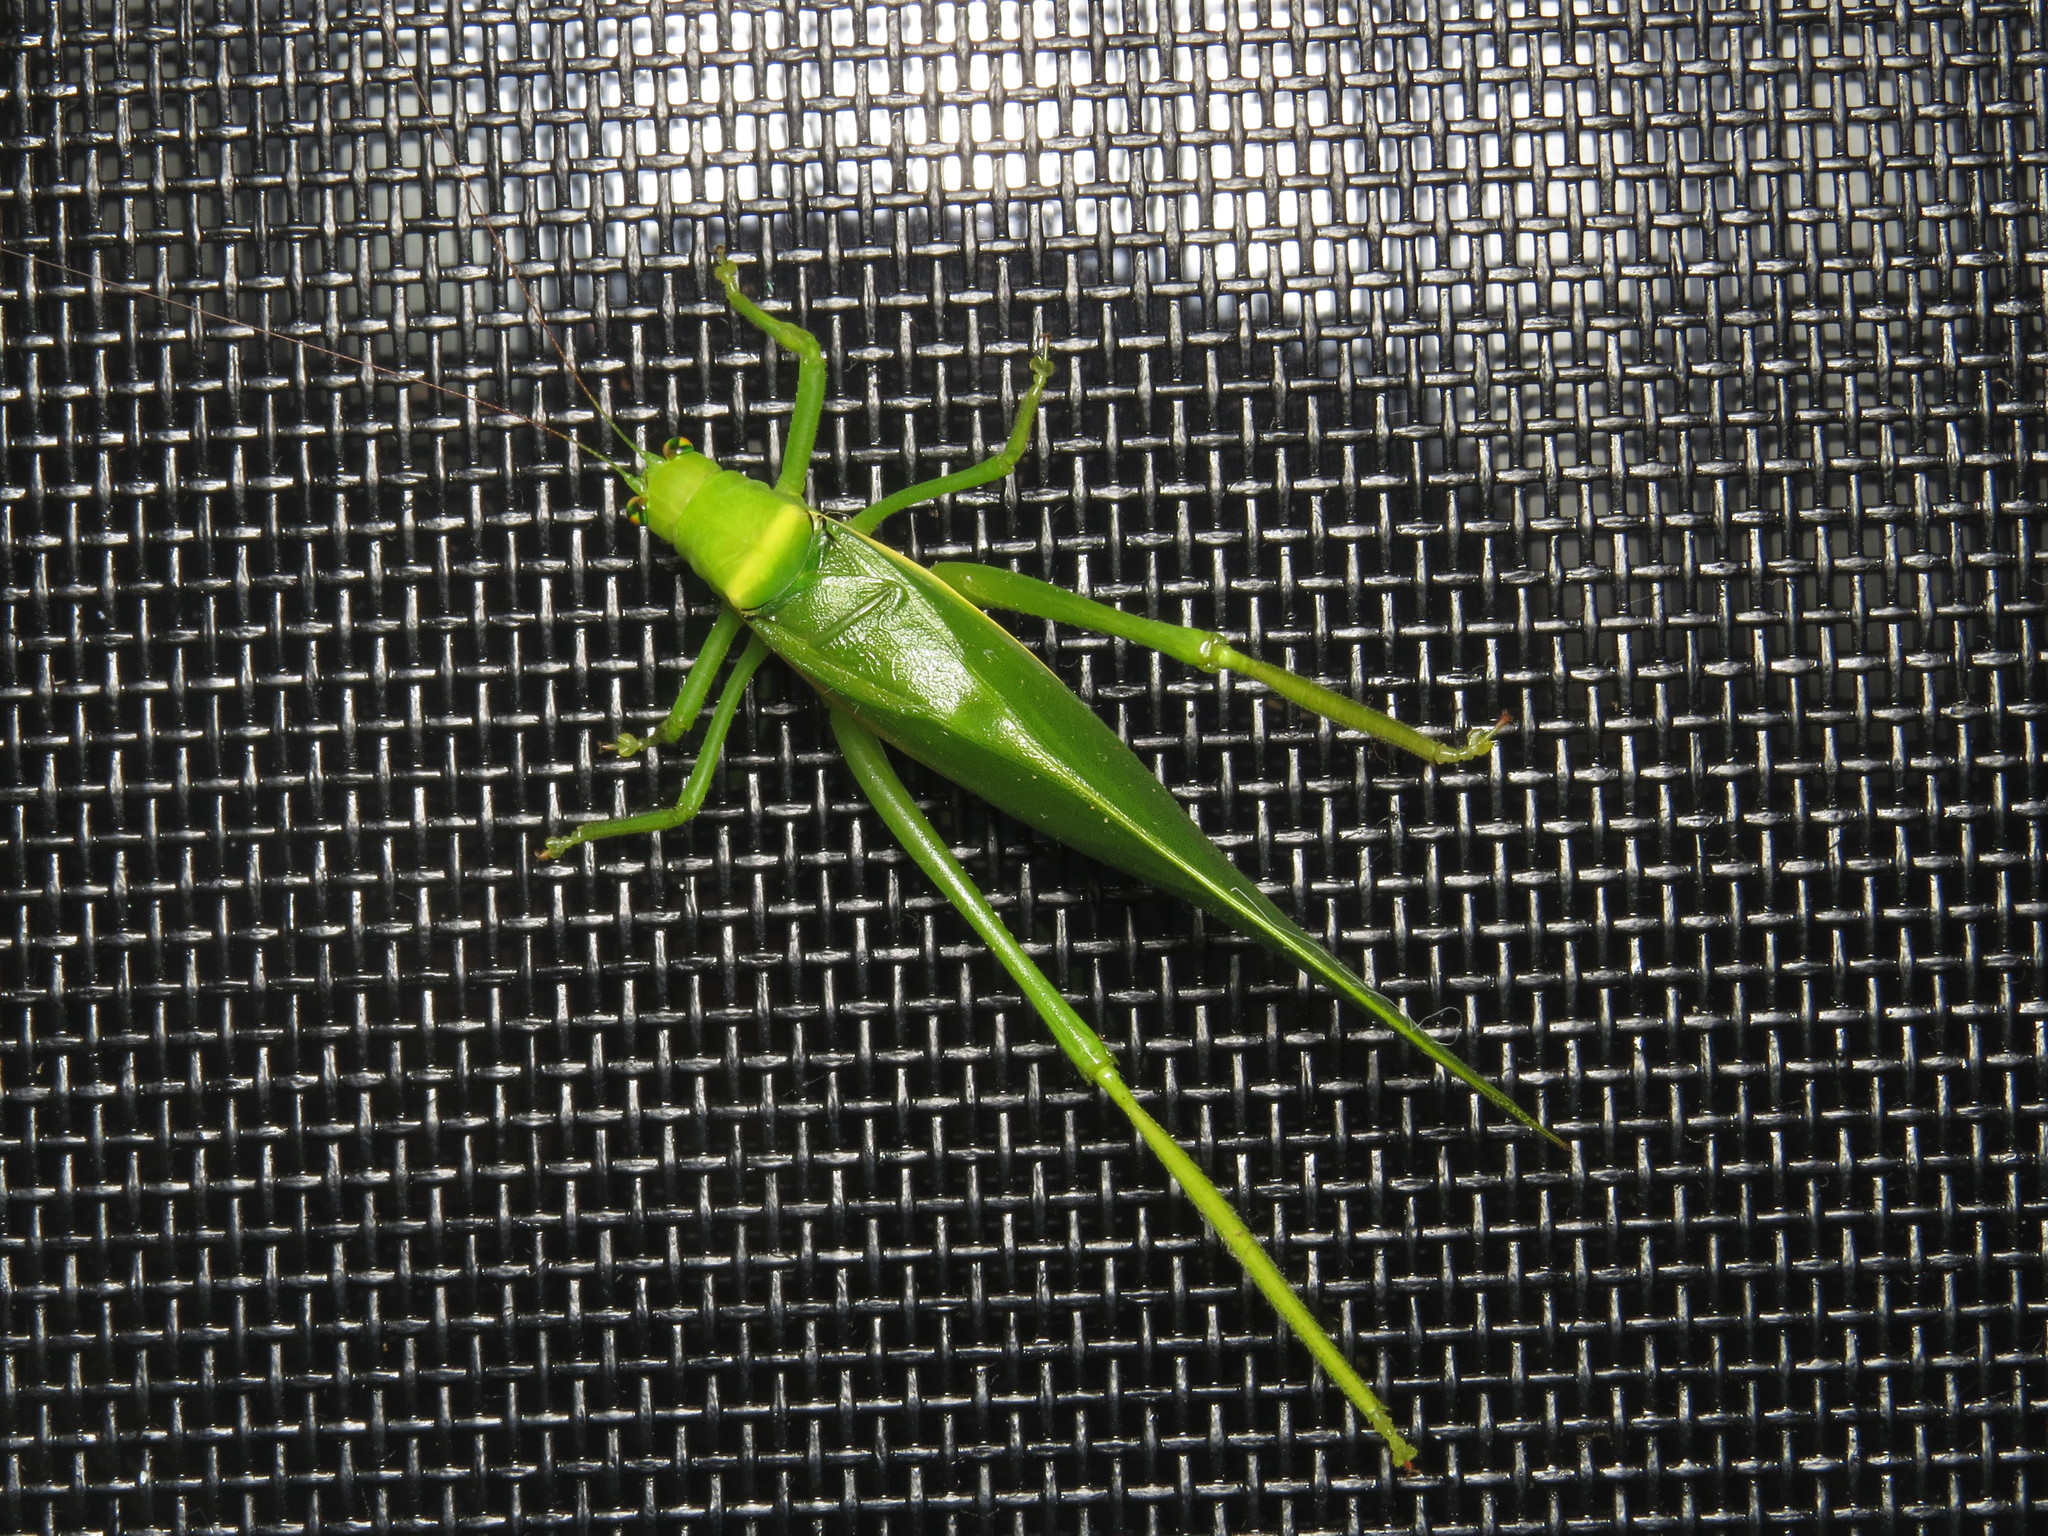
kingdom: Animalia
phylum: Arthropoda
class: Insecta
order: Orthoptera
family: Tettigoniidae
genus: Paracaedicia
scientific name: Paracaedicia serrata
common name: Serrated bush katydid
